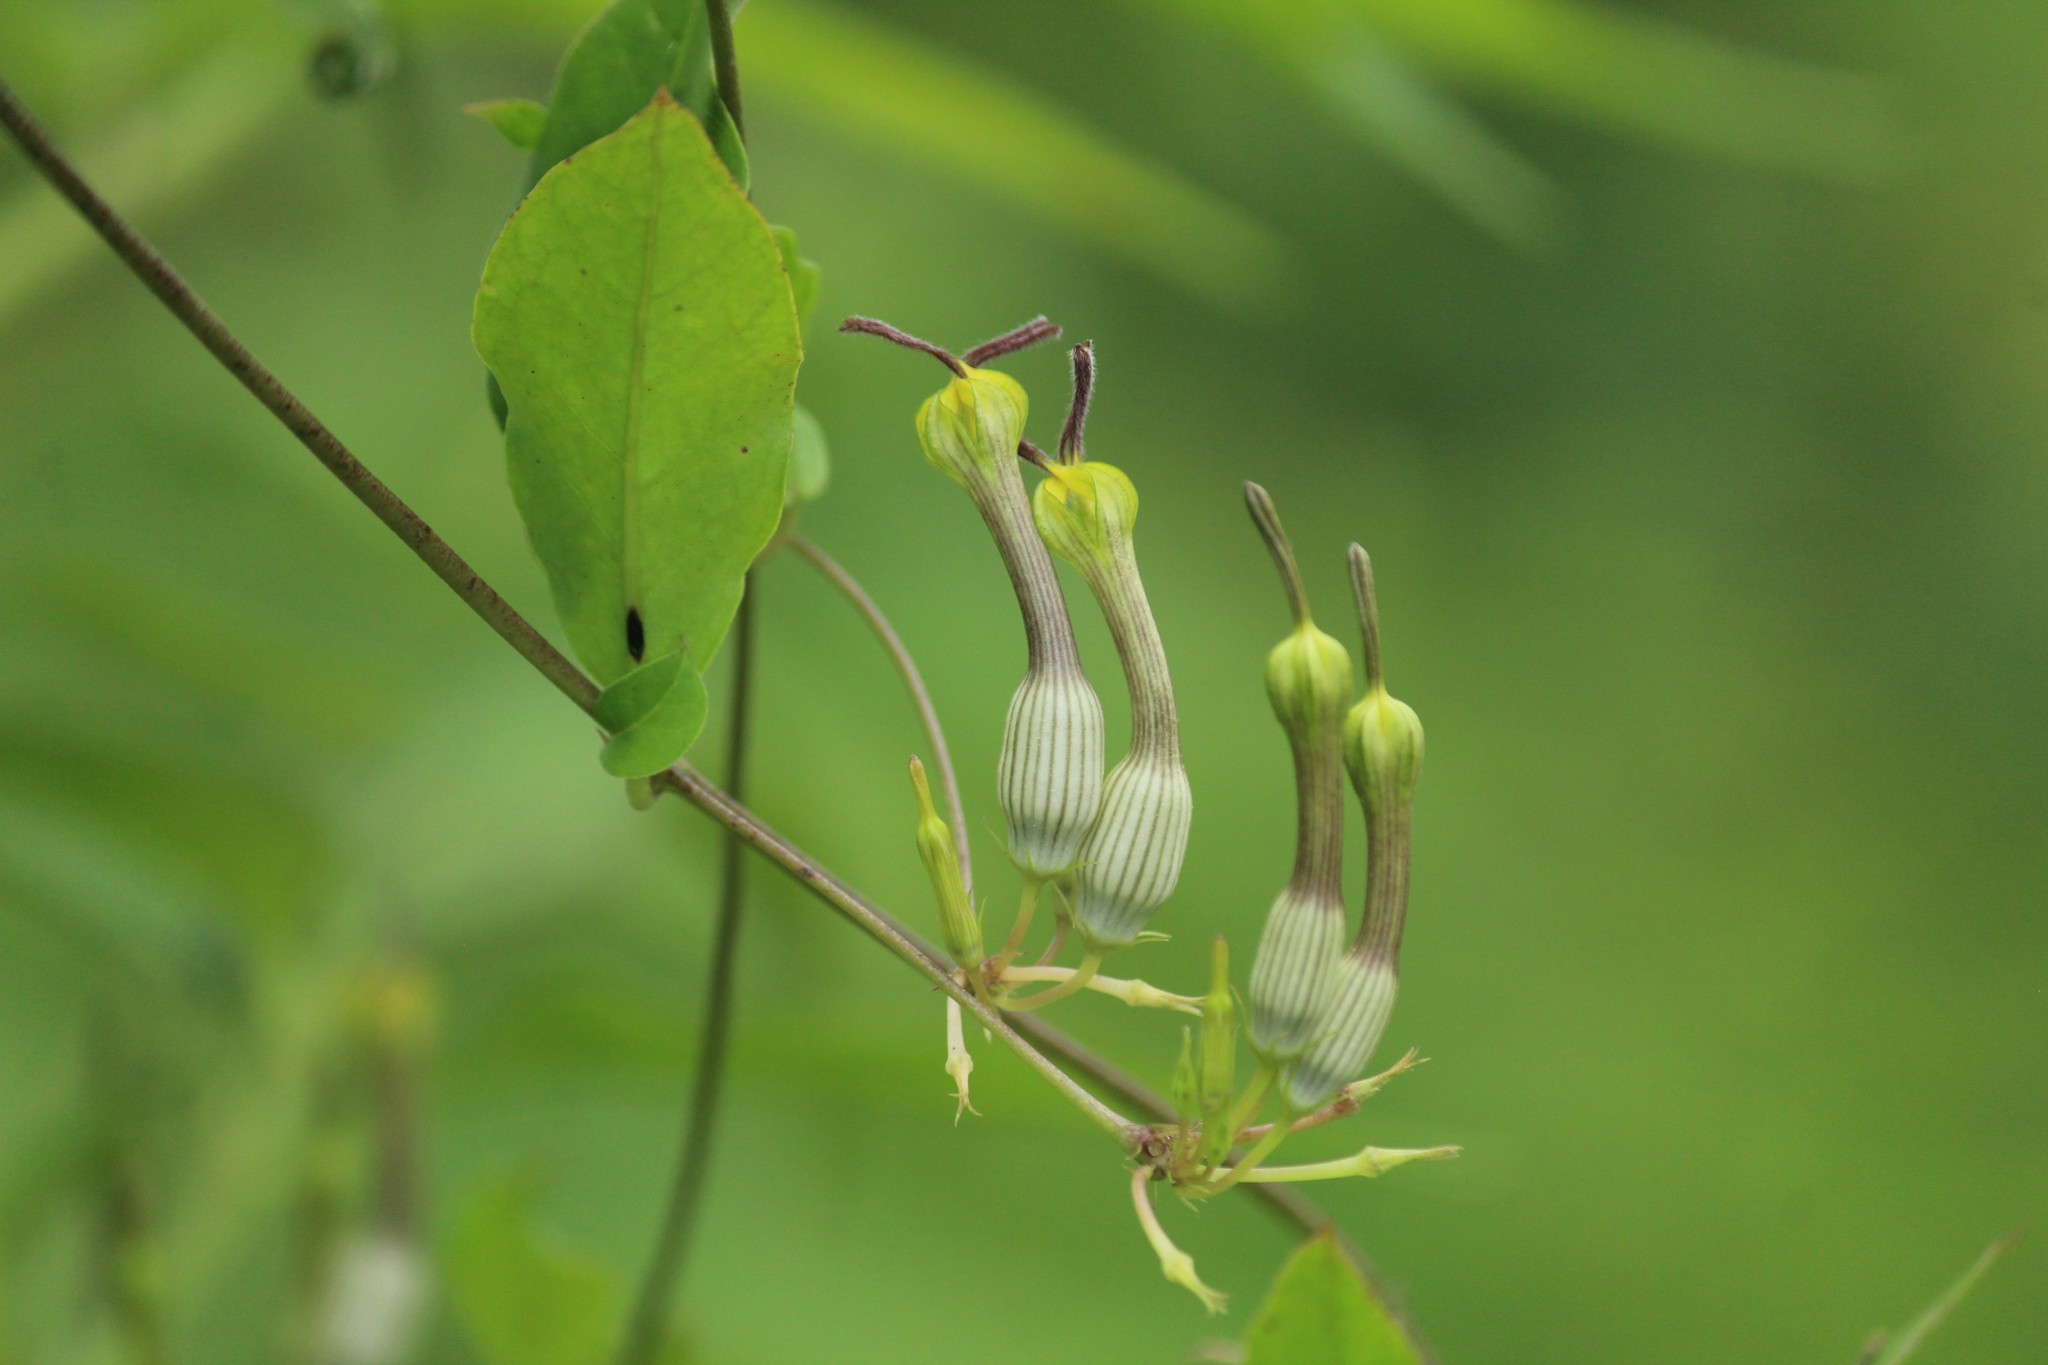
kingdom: Plantae
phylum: Tracheophyta
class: Magnoliopsida
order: Gentianales
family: Apocynaceae
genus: Ceropegia
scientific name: Ceropegia candelabrum
